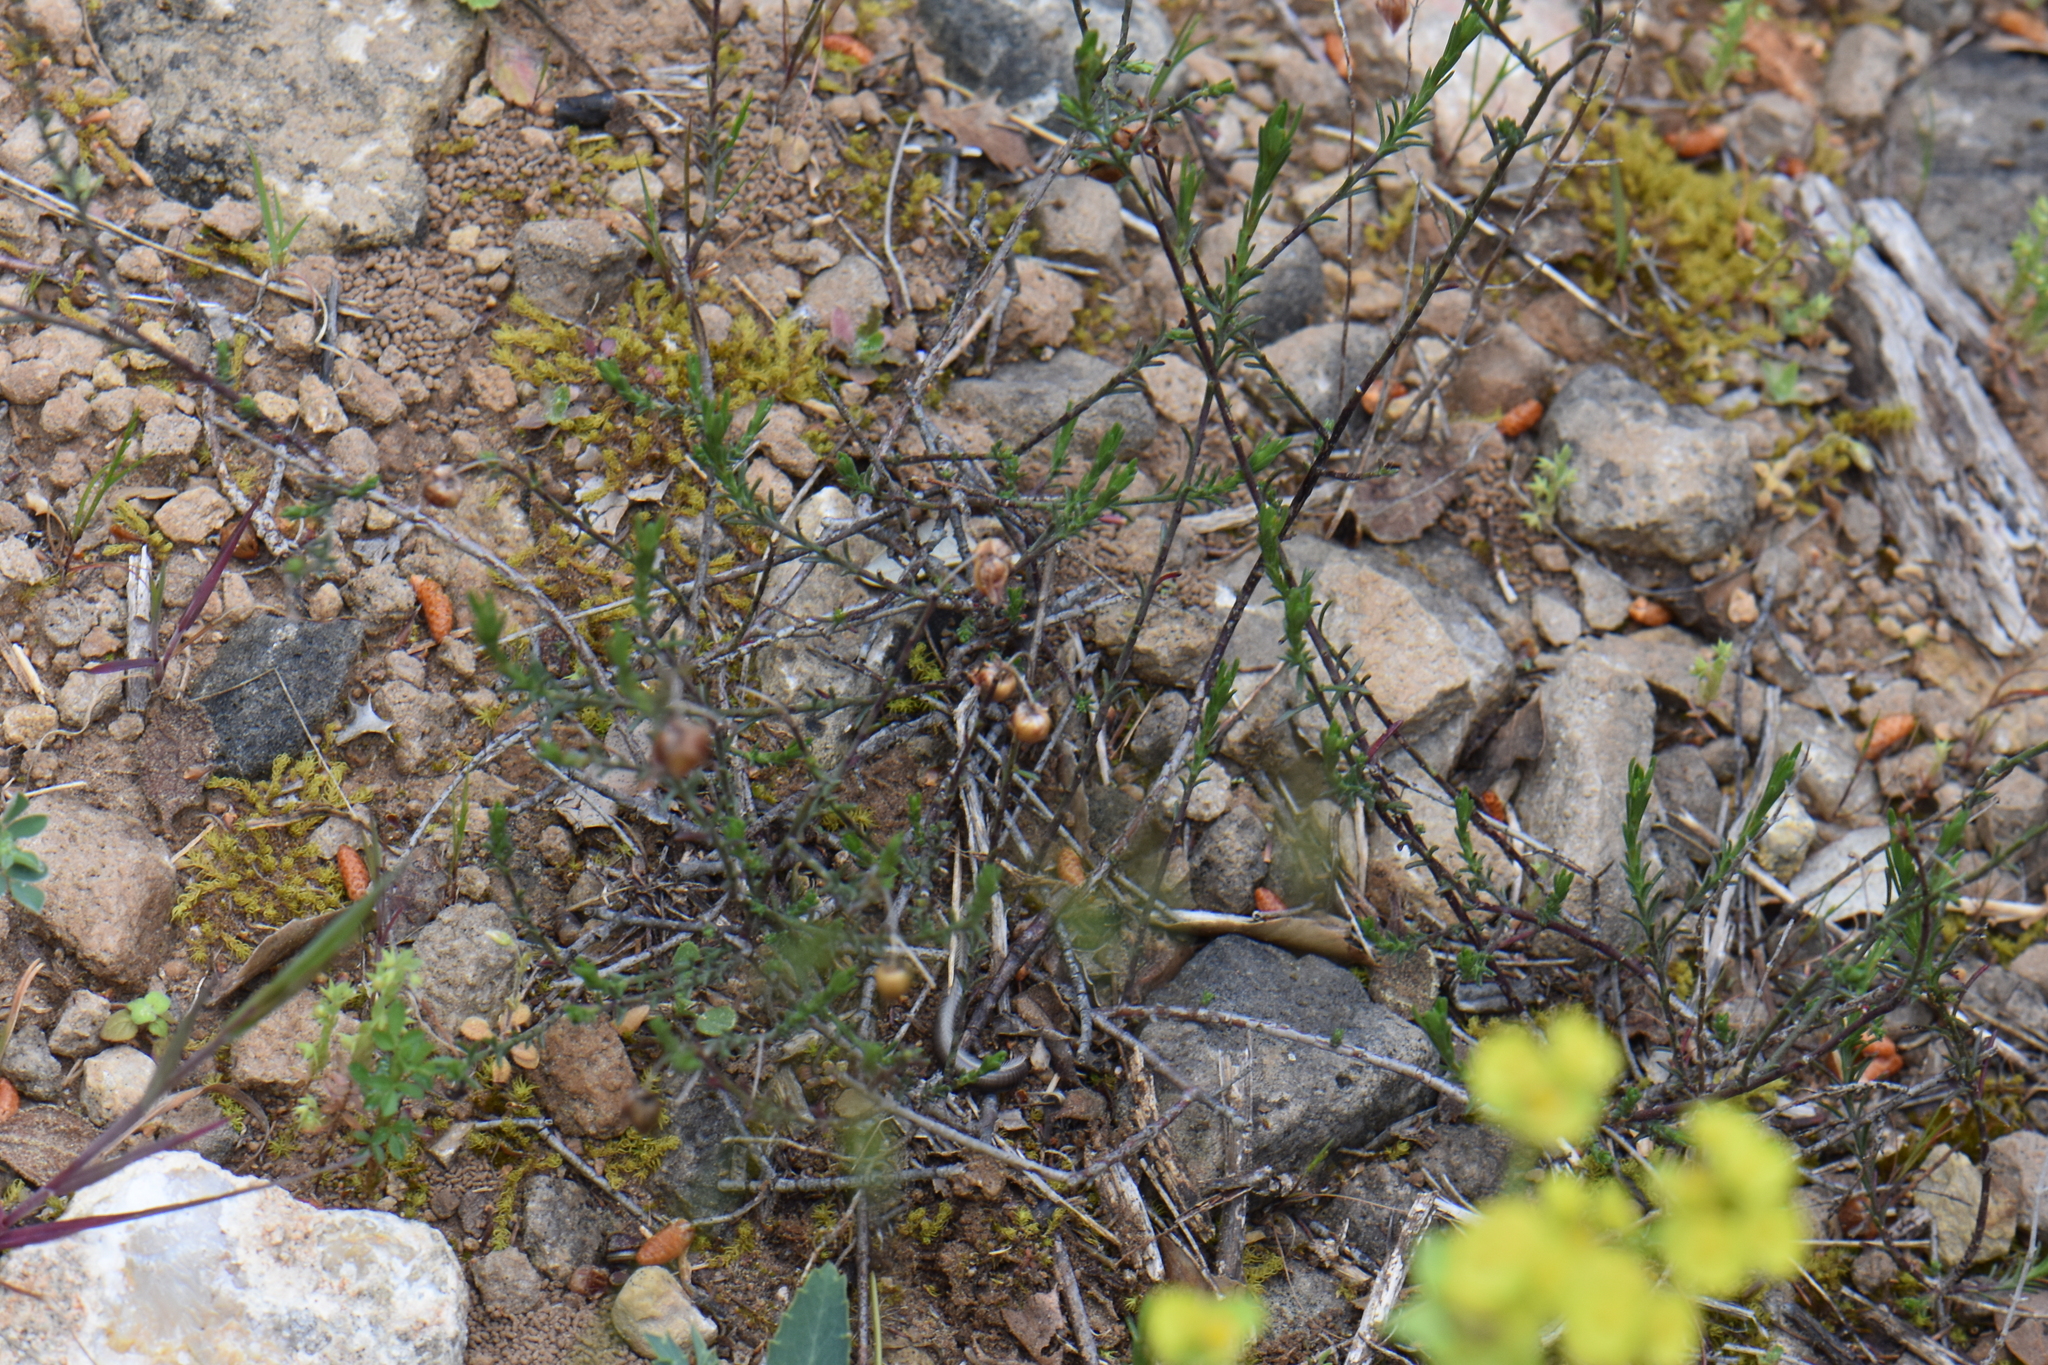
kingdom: Plantae
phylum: Tracheophyta
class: Magnoliopsida
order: Malvales
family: Cistaceae
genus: Fumana
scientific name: Fumana ericifolia
